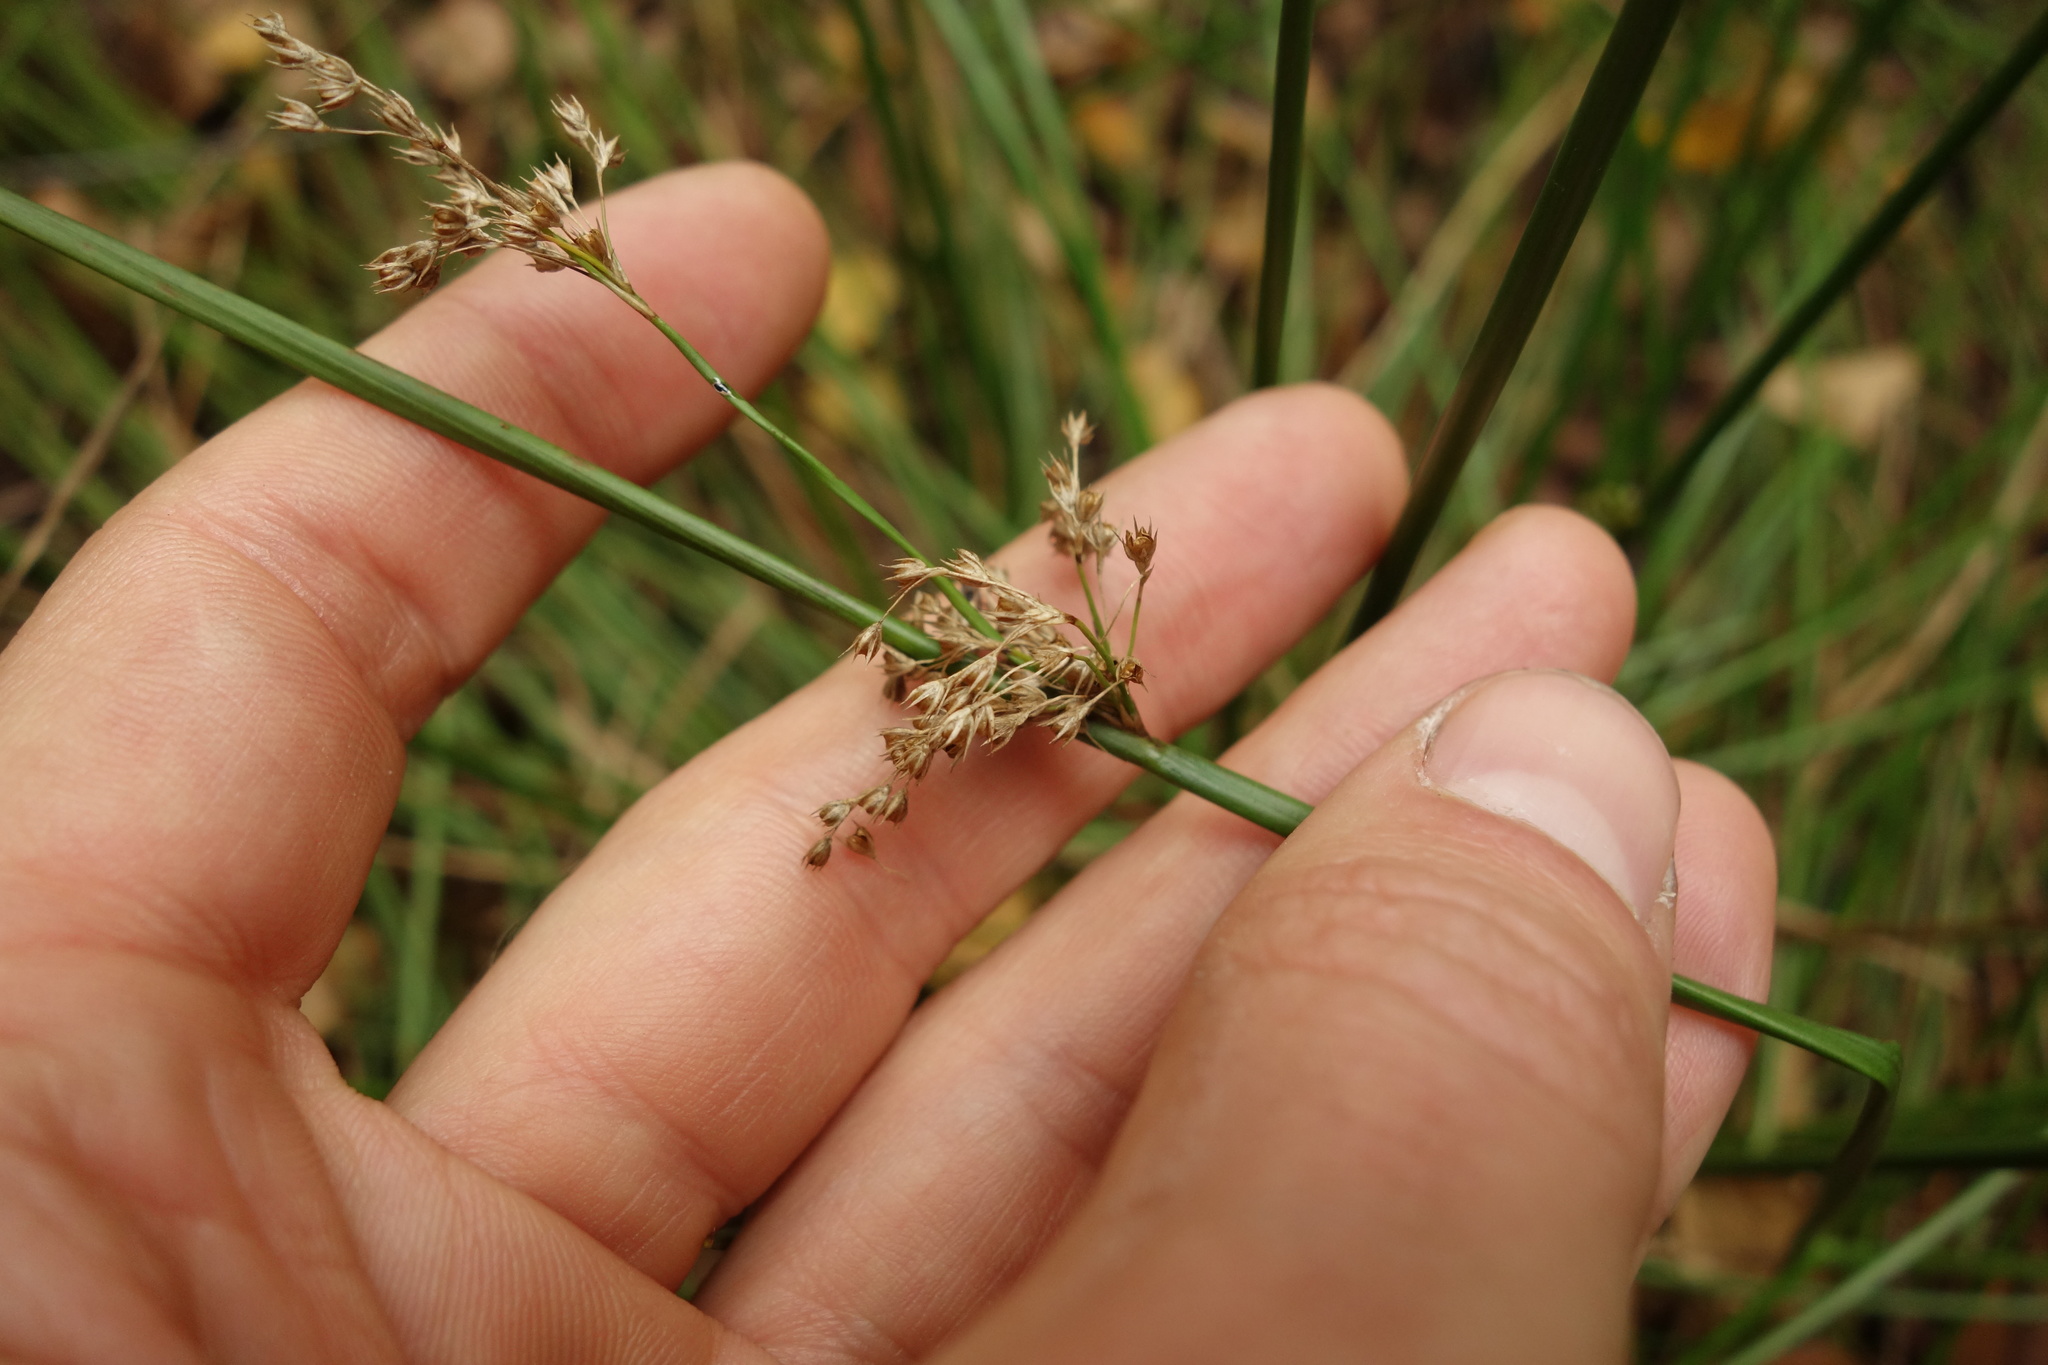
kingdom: Plantae
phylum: Tracheophyta
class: Liliopsida
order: Poales
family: Juncaceae
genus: Juncus
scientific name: Juncus effusus
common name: Soft rush
